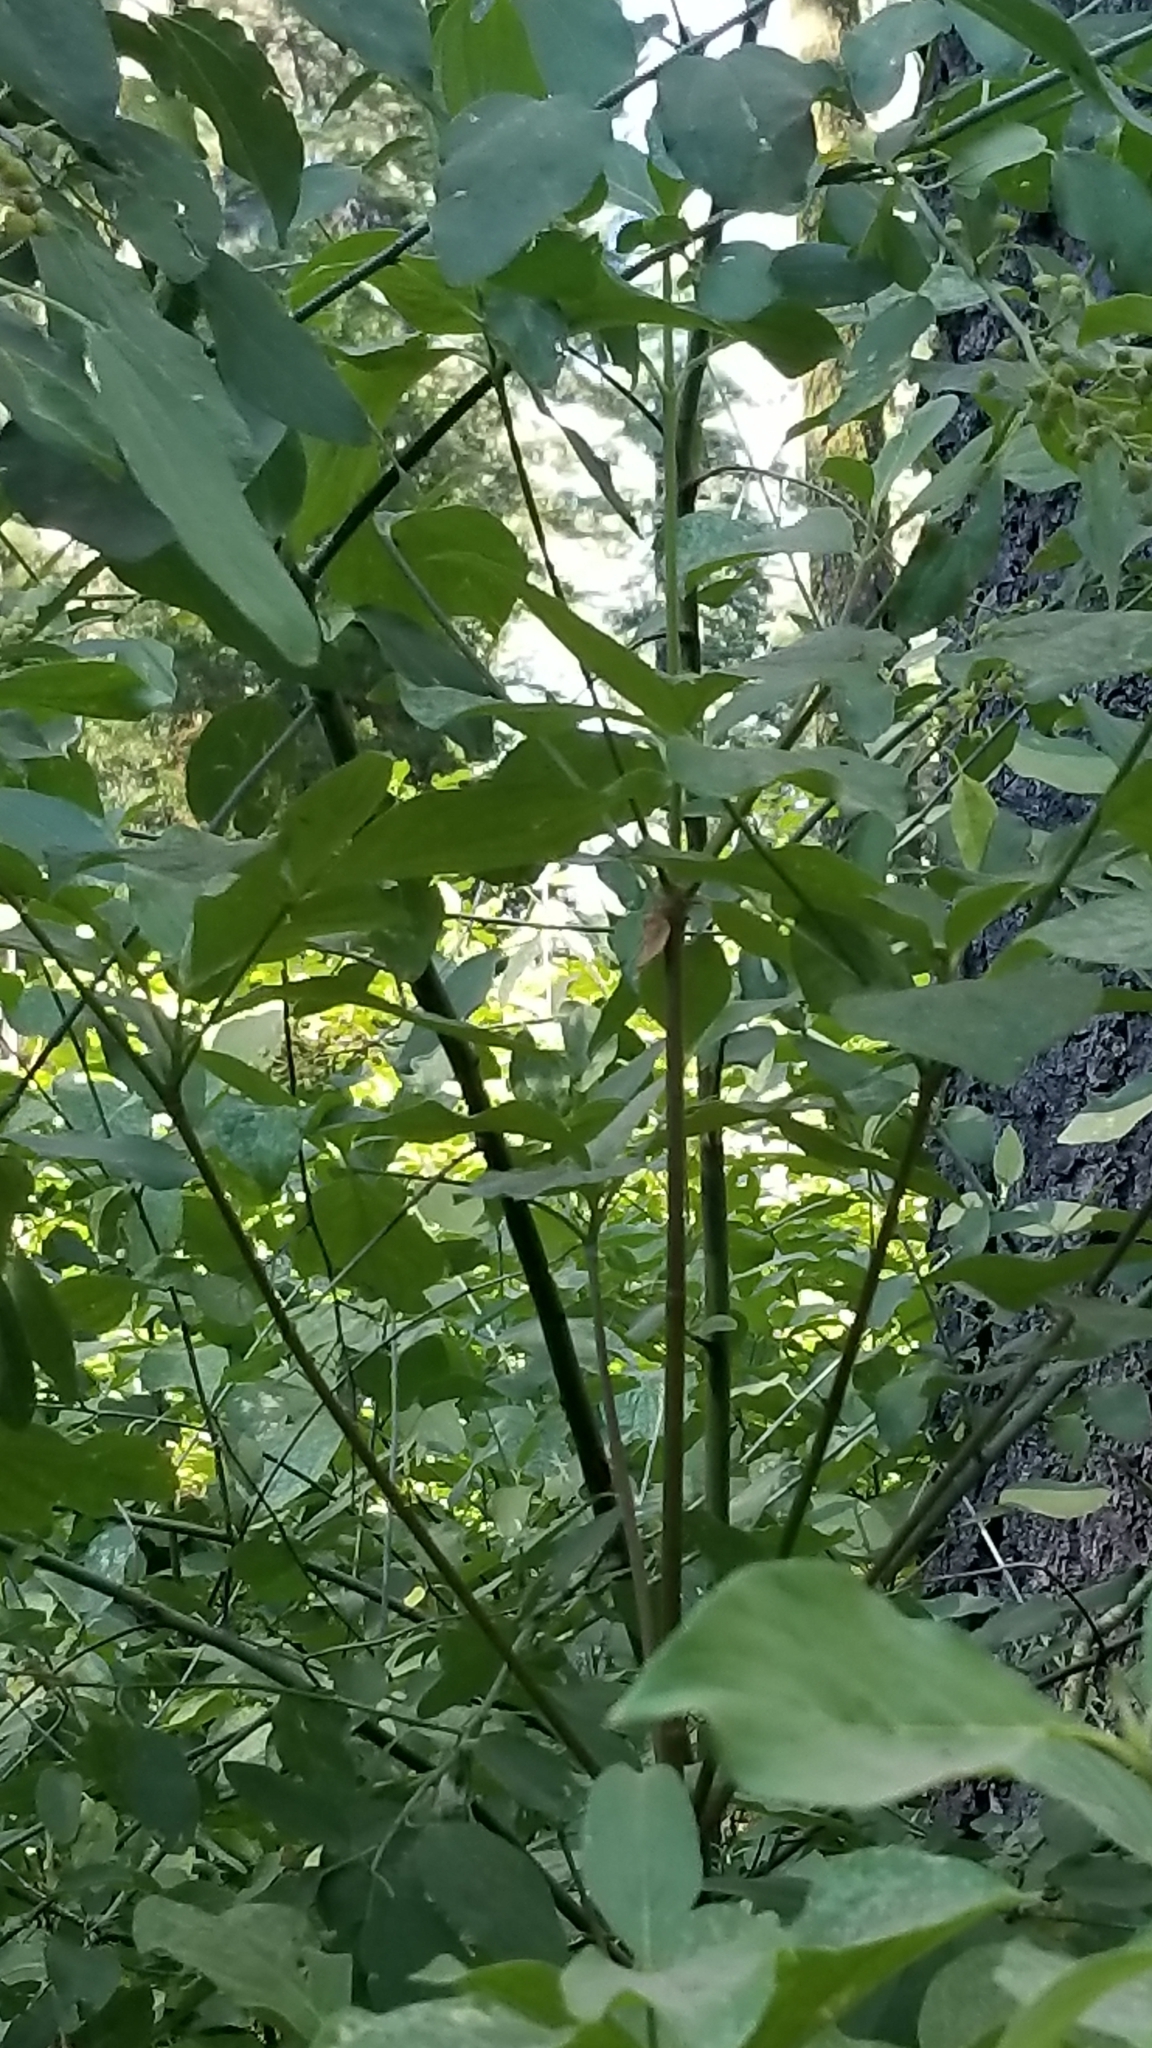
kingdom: Plantae
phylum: Tracheophyta
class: Magnoliopsida
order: Rosales
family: Rhamnaceae
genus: Ceanothus
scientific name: Ceanothus integerrimus
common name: Deerbrush ceanothus
